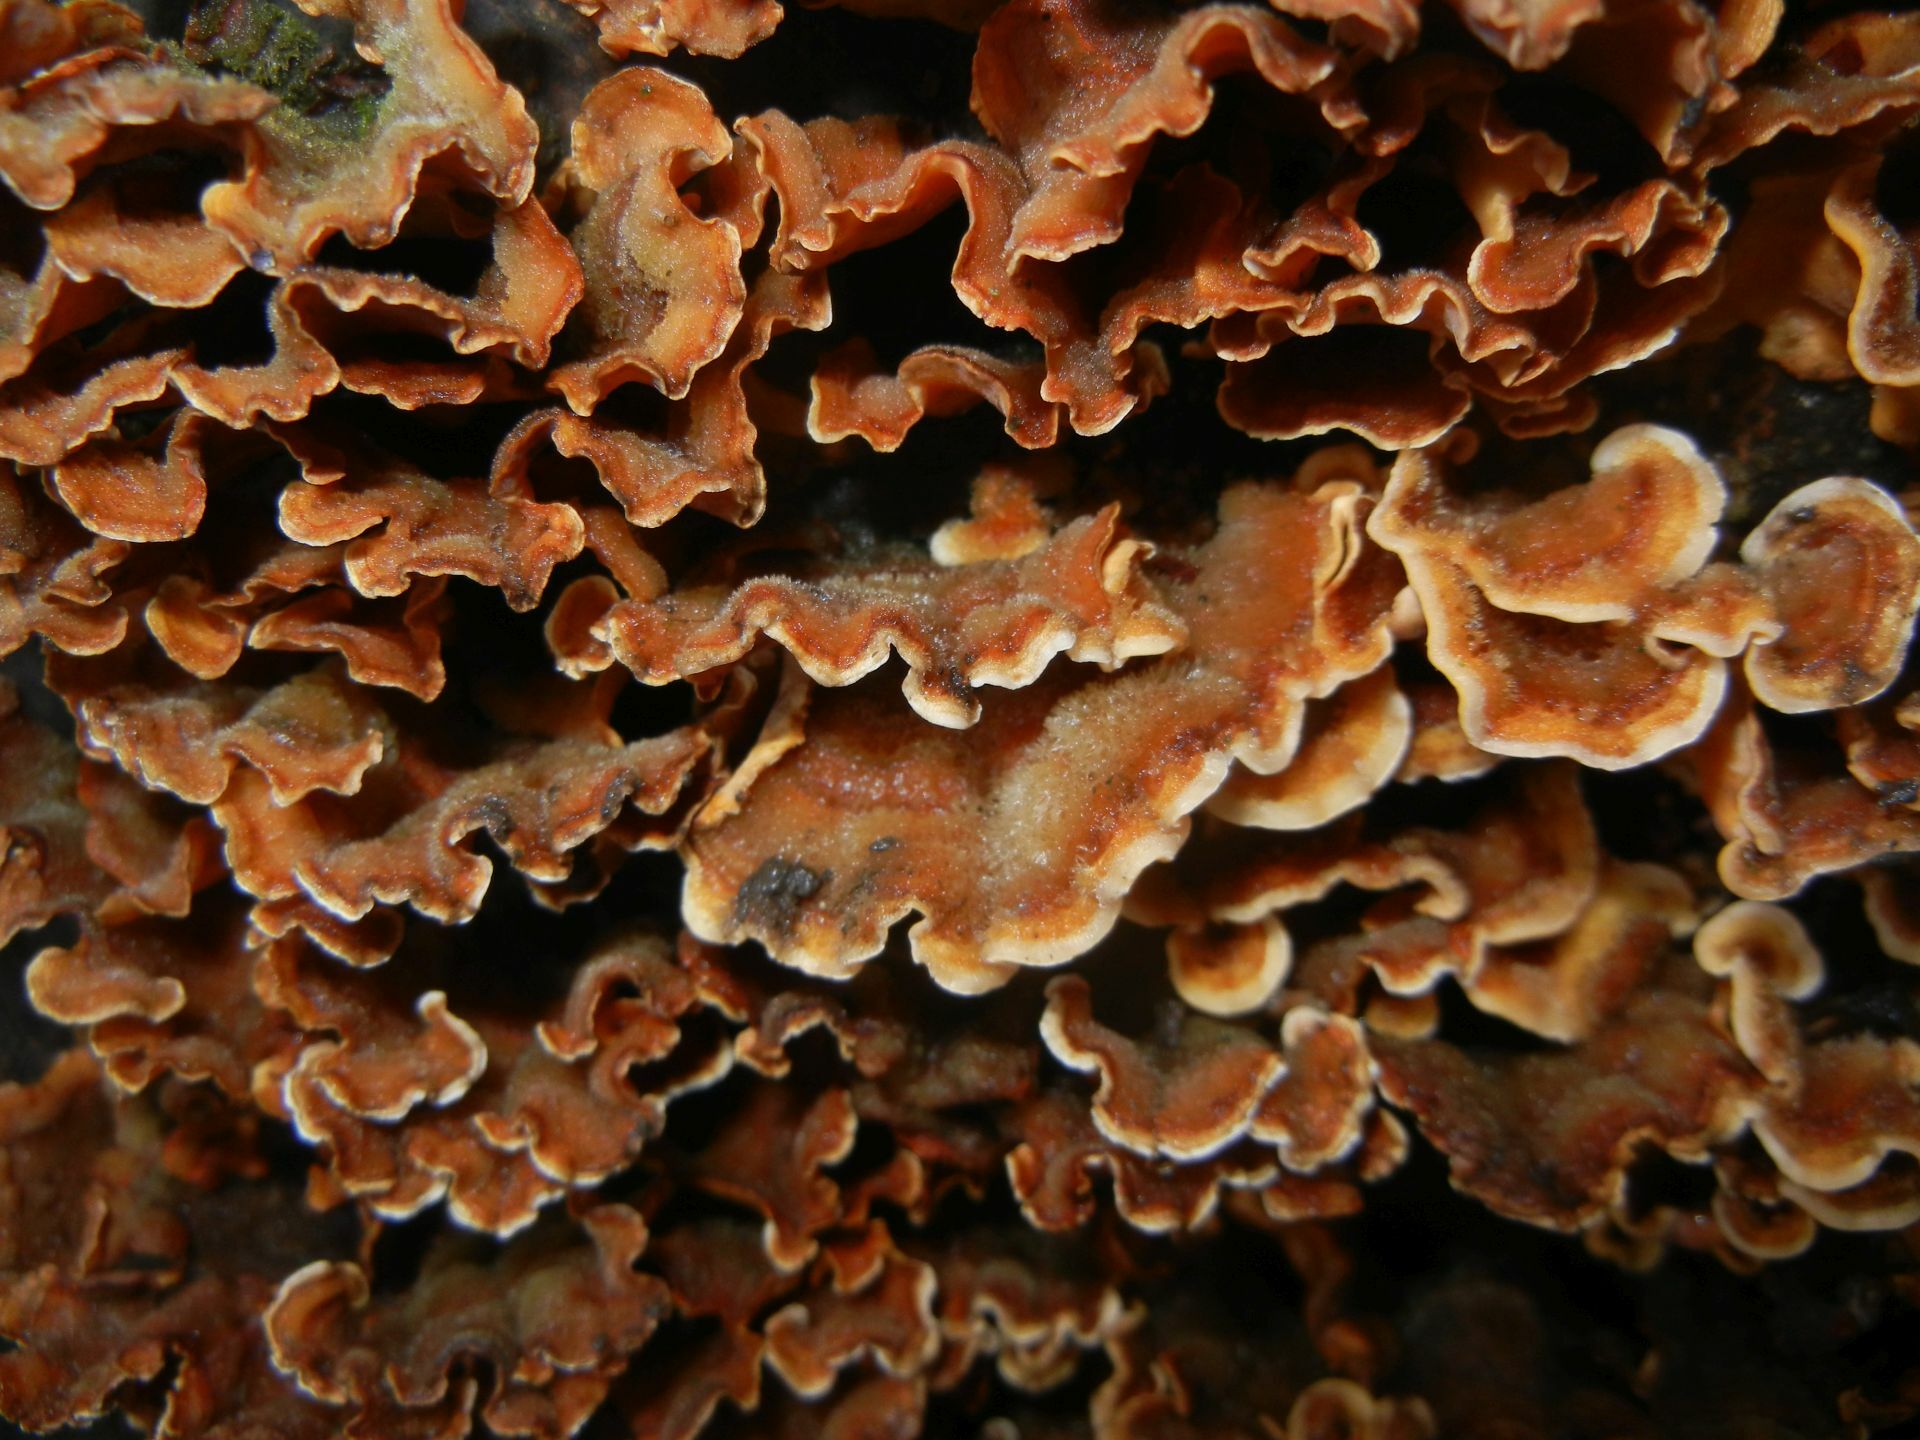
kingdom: Fungi
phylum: Basidiomycota
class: Agaricomycetes
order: Russulales
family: Stereaceae
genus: Stereum
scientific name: Stereum hirsutum
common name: Hairy curtain crust
